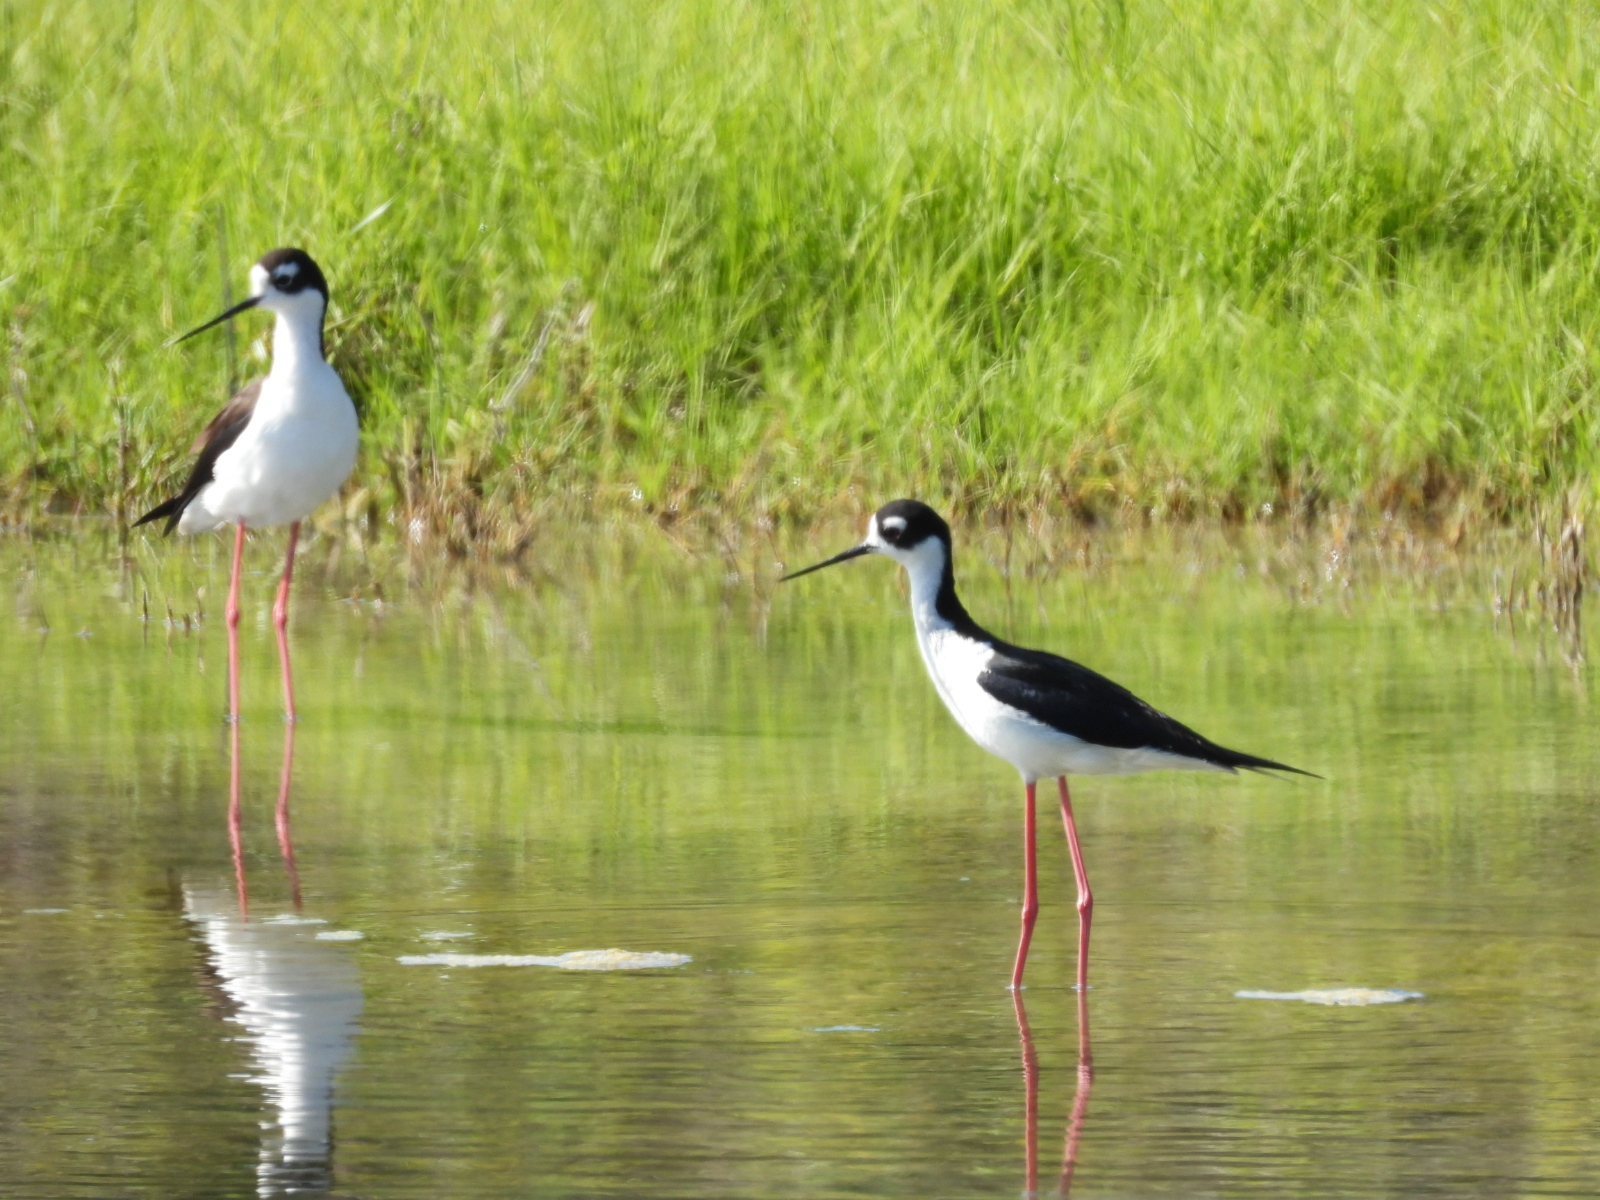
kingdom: Animalia
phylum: Chordata
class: Aves
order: Charadriiformes
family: Recurvirostridae
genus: Himantopus
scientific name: Himantopus mexicanus
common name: Black-necked stilt
